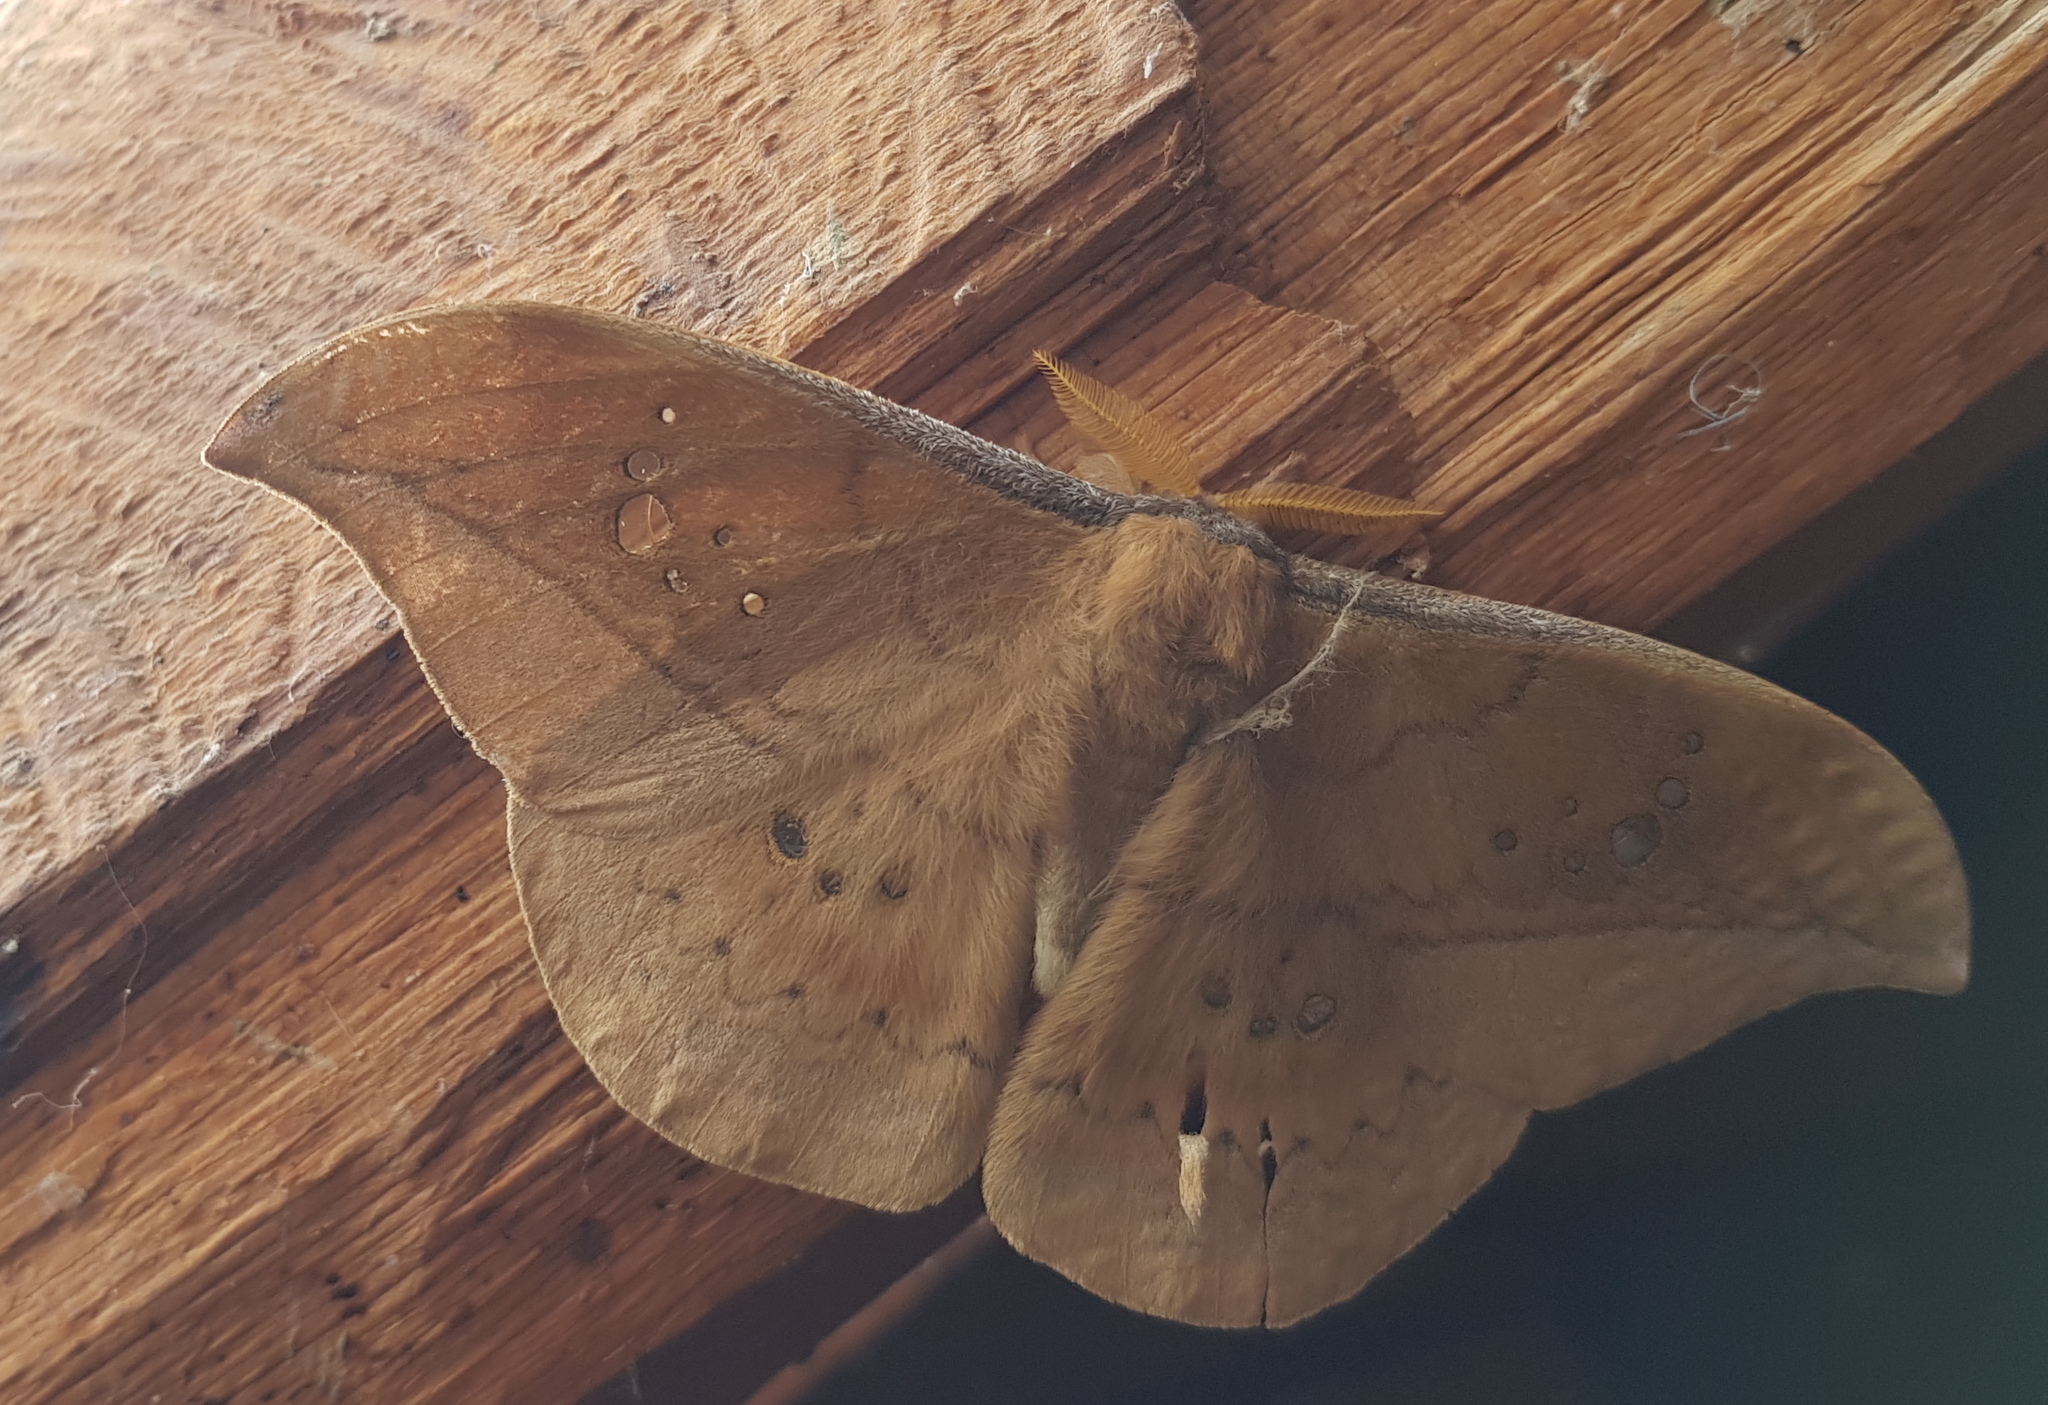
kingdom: Animalia
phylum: Arthropoda
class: Insecta
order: Lepidoptera
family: Saturniidae
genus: Copaxa
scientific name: Copaxa multifenestrata
